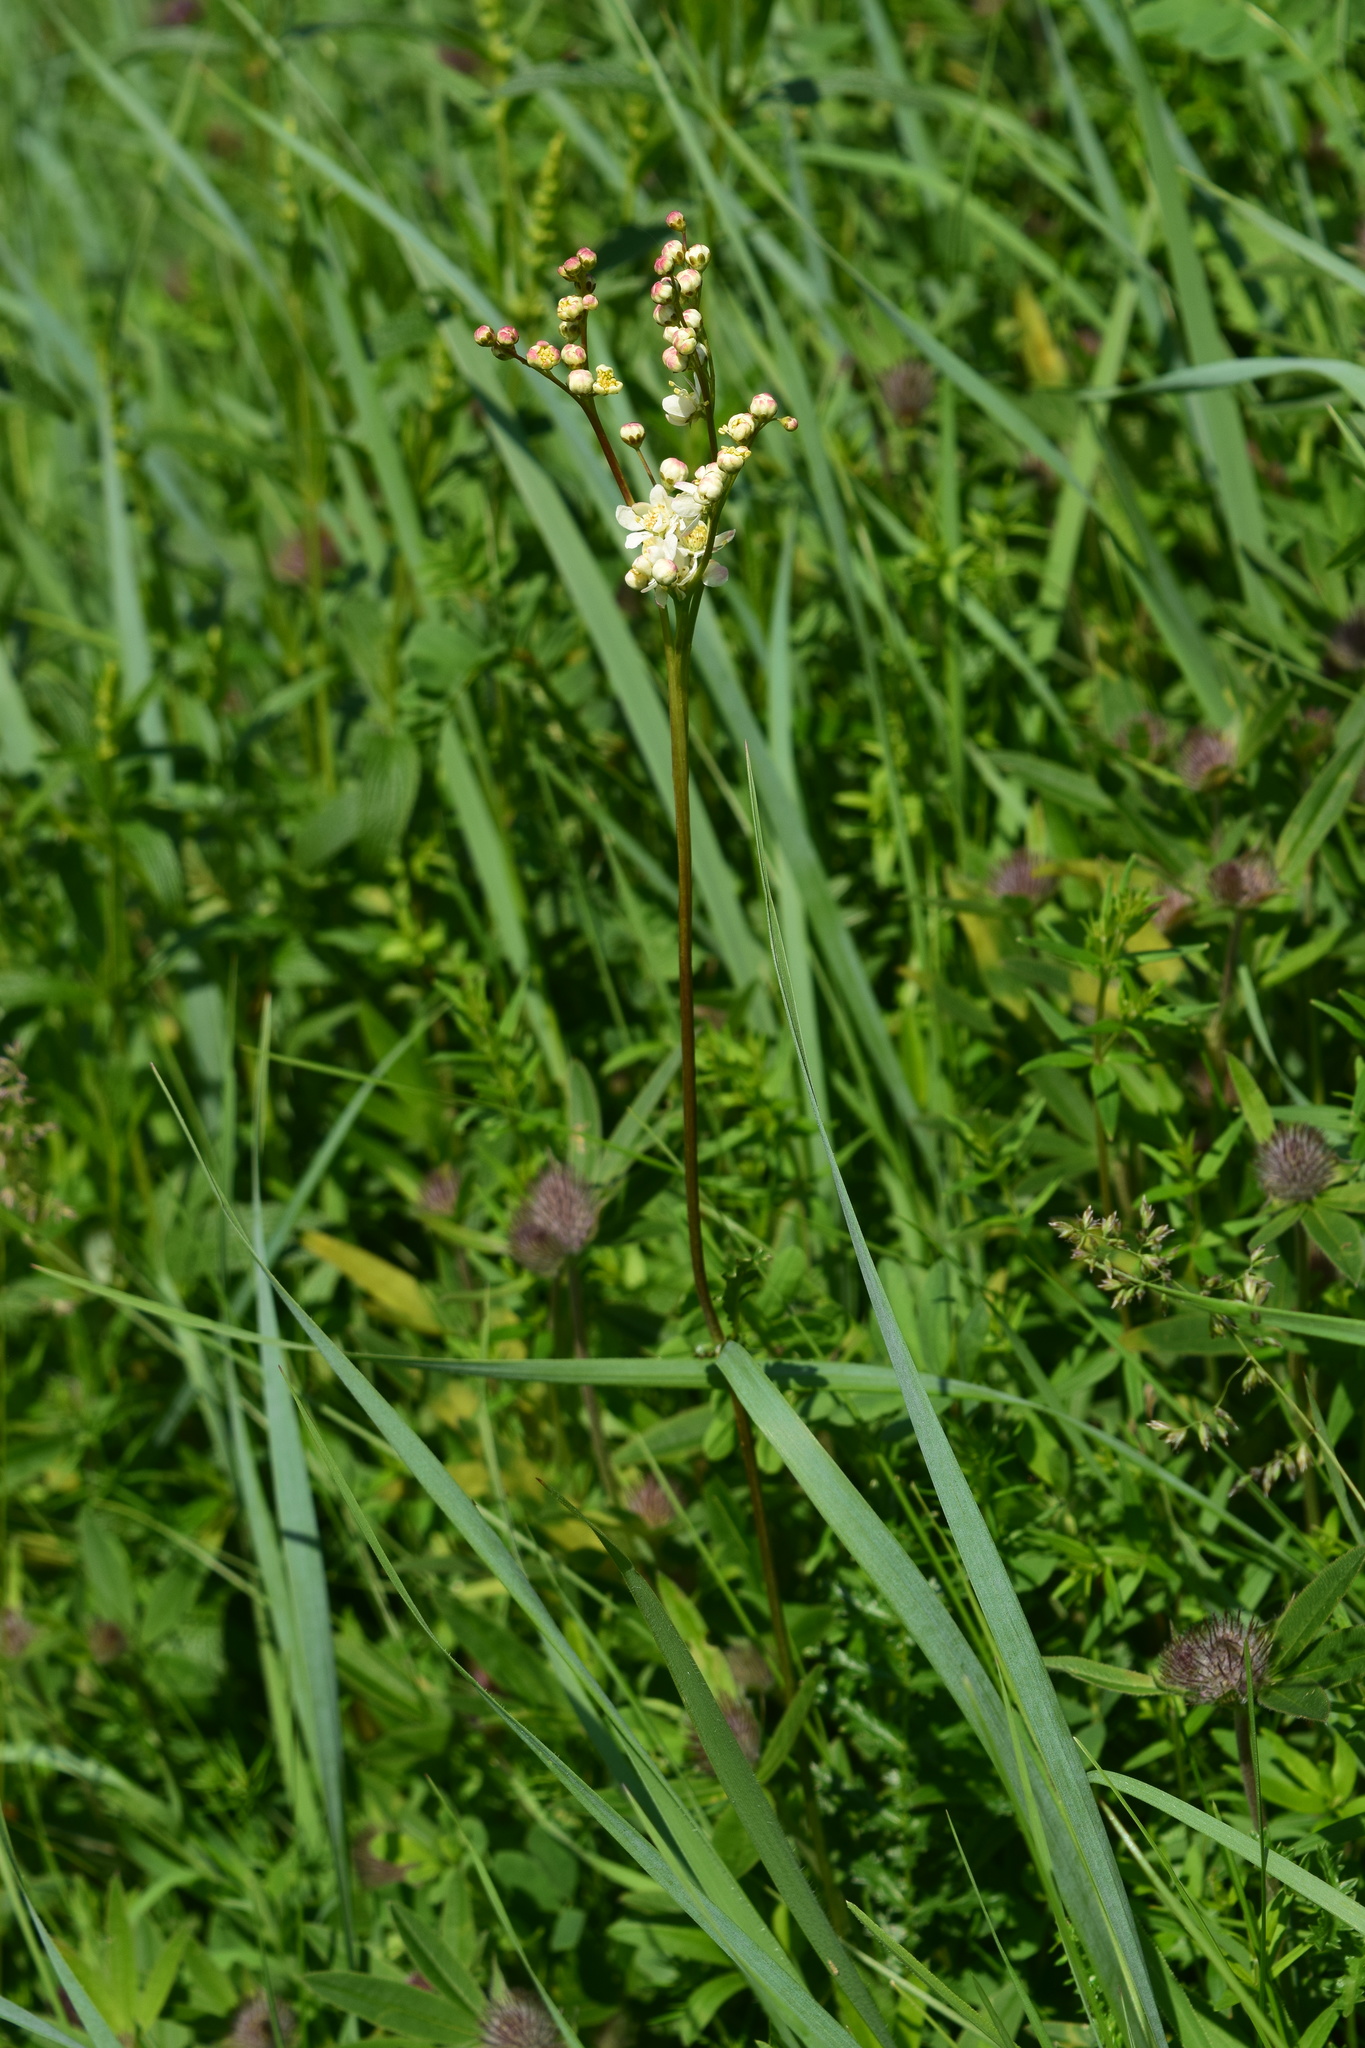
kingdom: Plantae
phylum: Tracheophyta
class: Magnoliopsida
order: Rosales
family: Rosaceae
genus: Filipendula
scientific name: Filipendula vulgaris
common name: Dropwort
